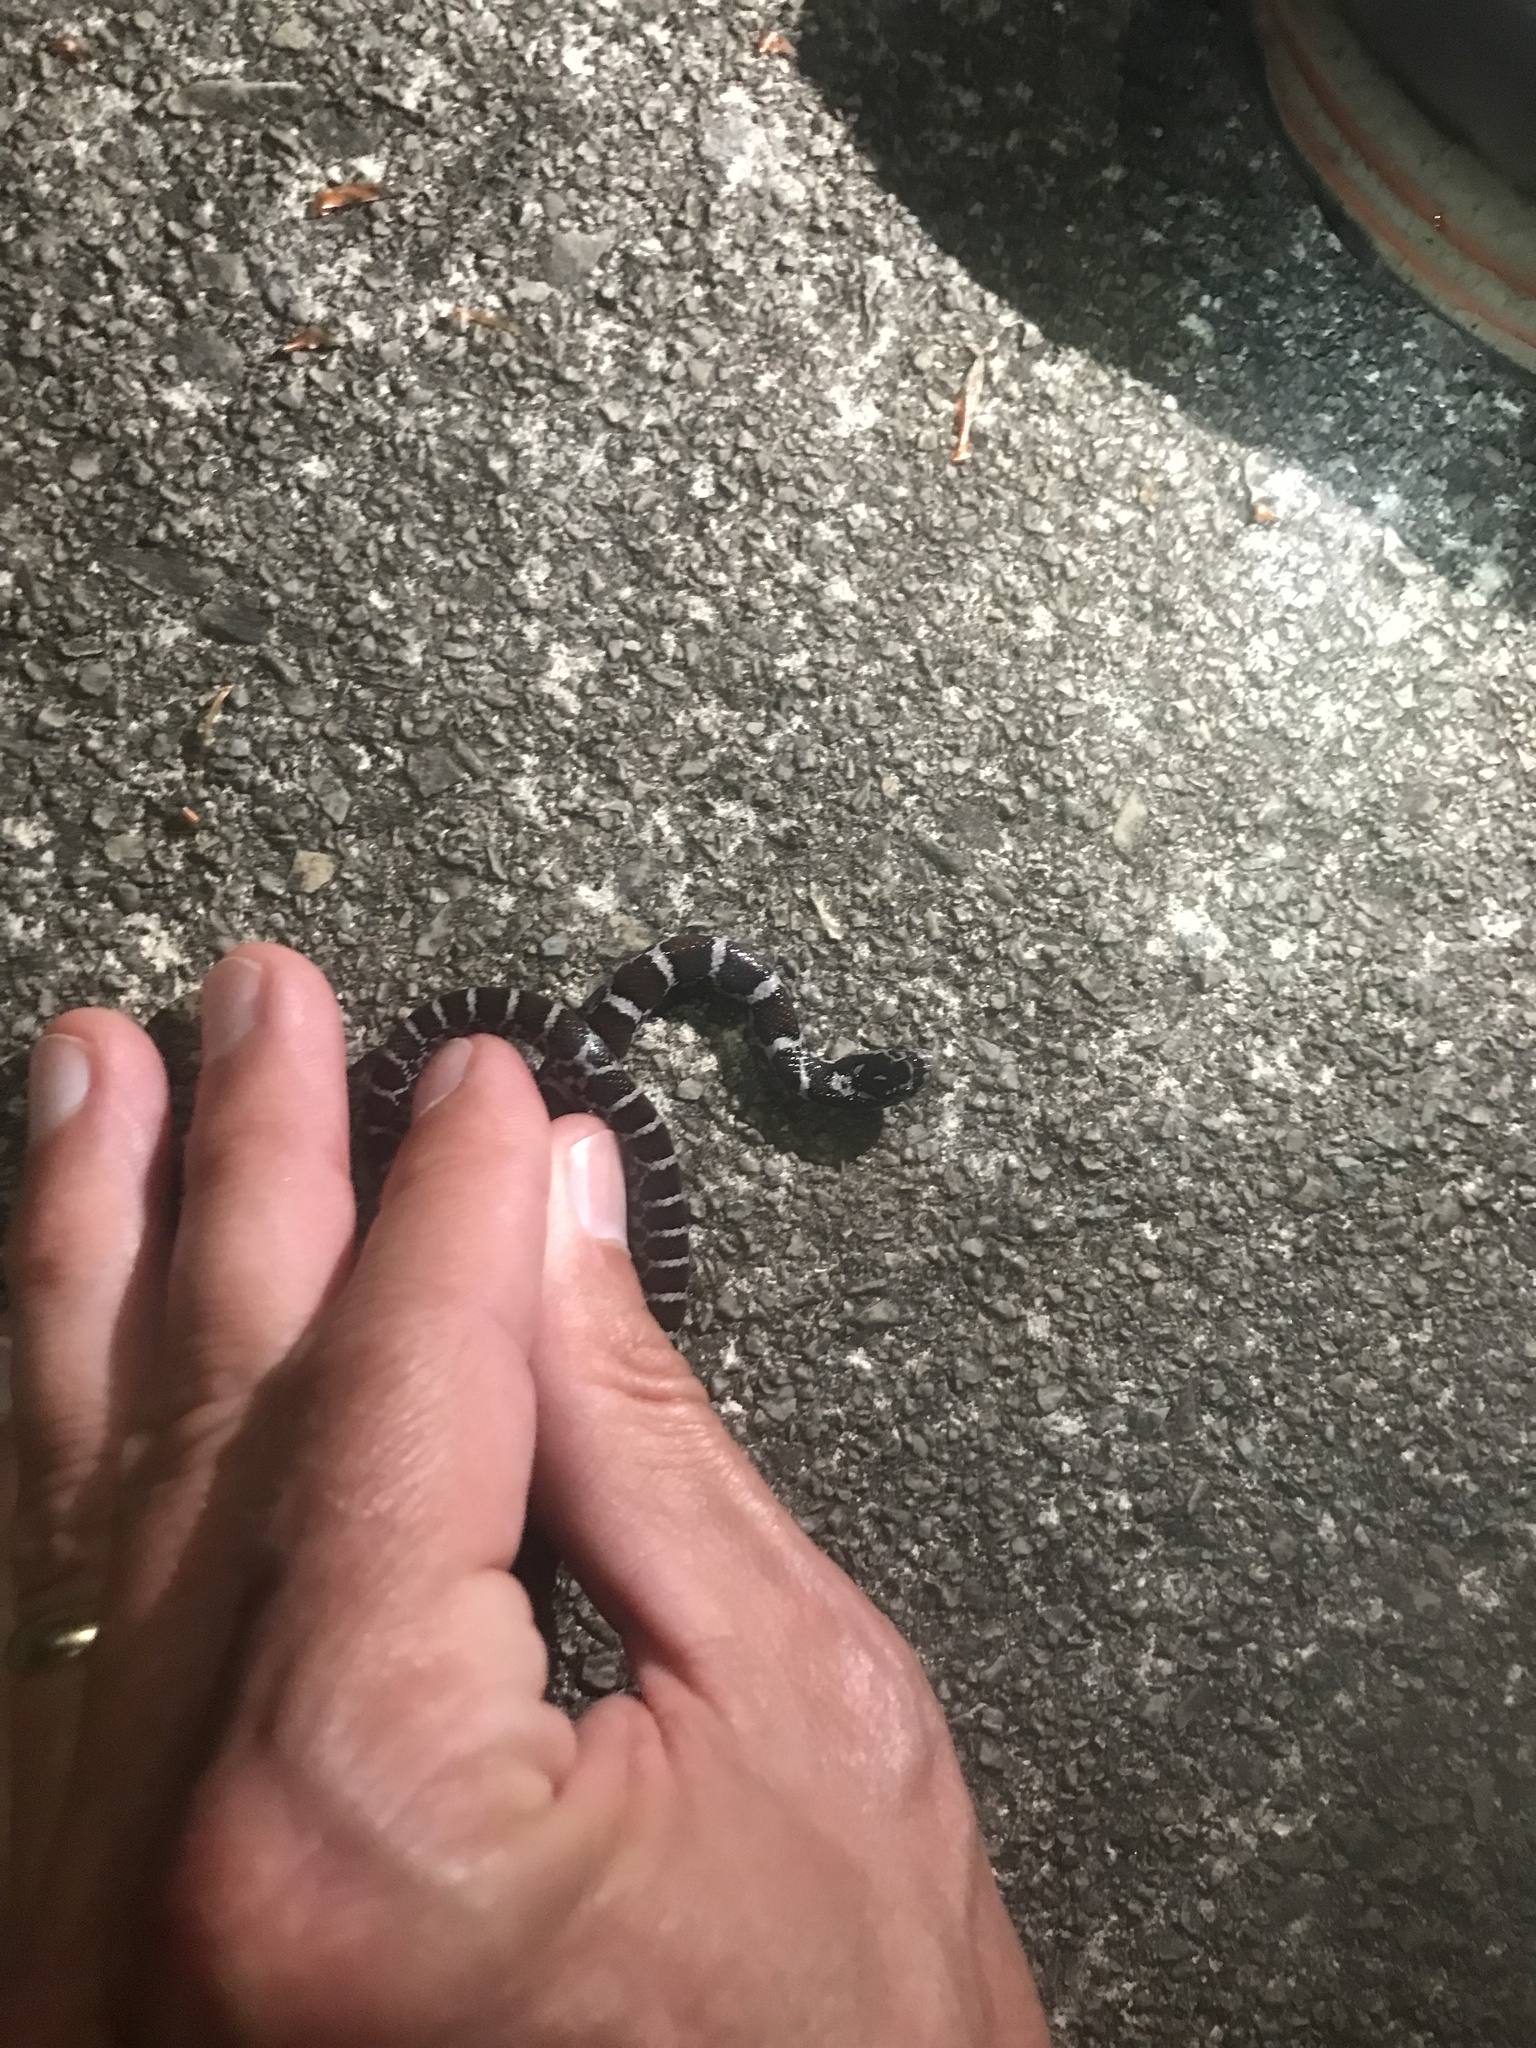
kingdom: Animalia
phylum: Chordata
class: Squamata
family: Colubridae
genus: Lampropeltis
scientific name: Lampropeltis triangulum
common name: Eastern milksnake
